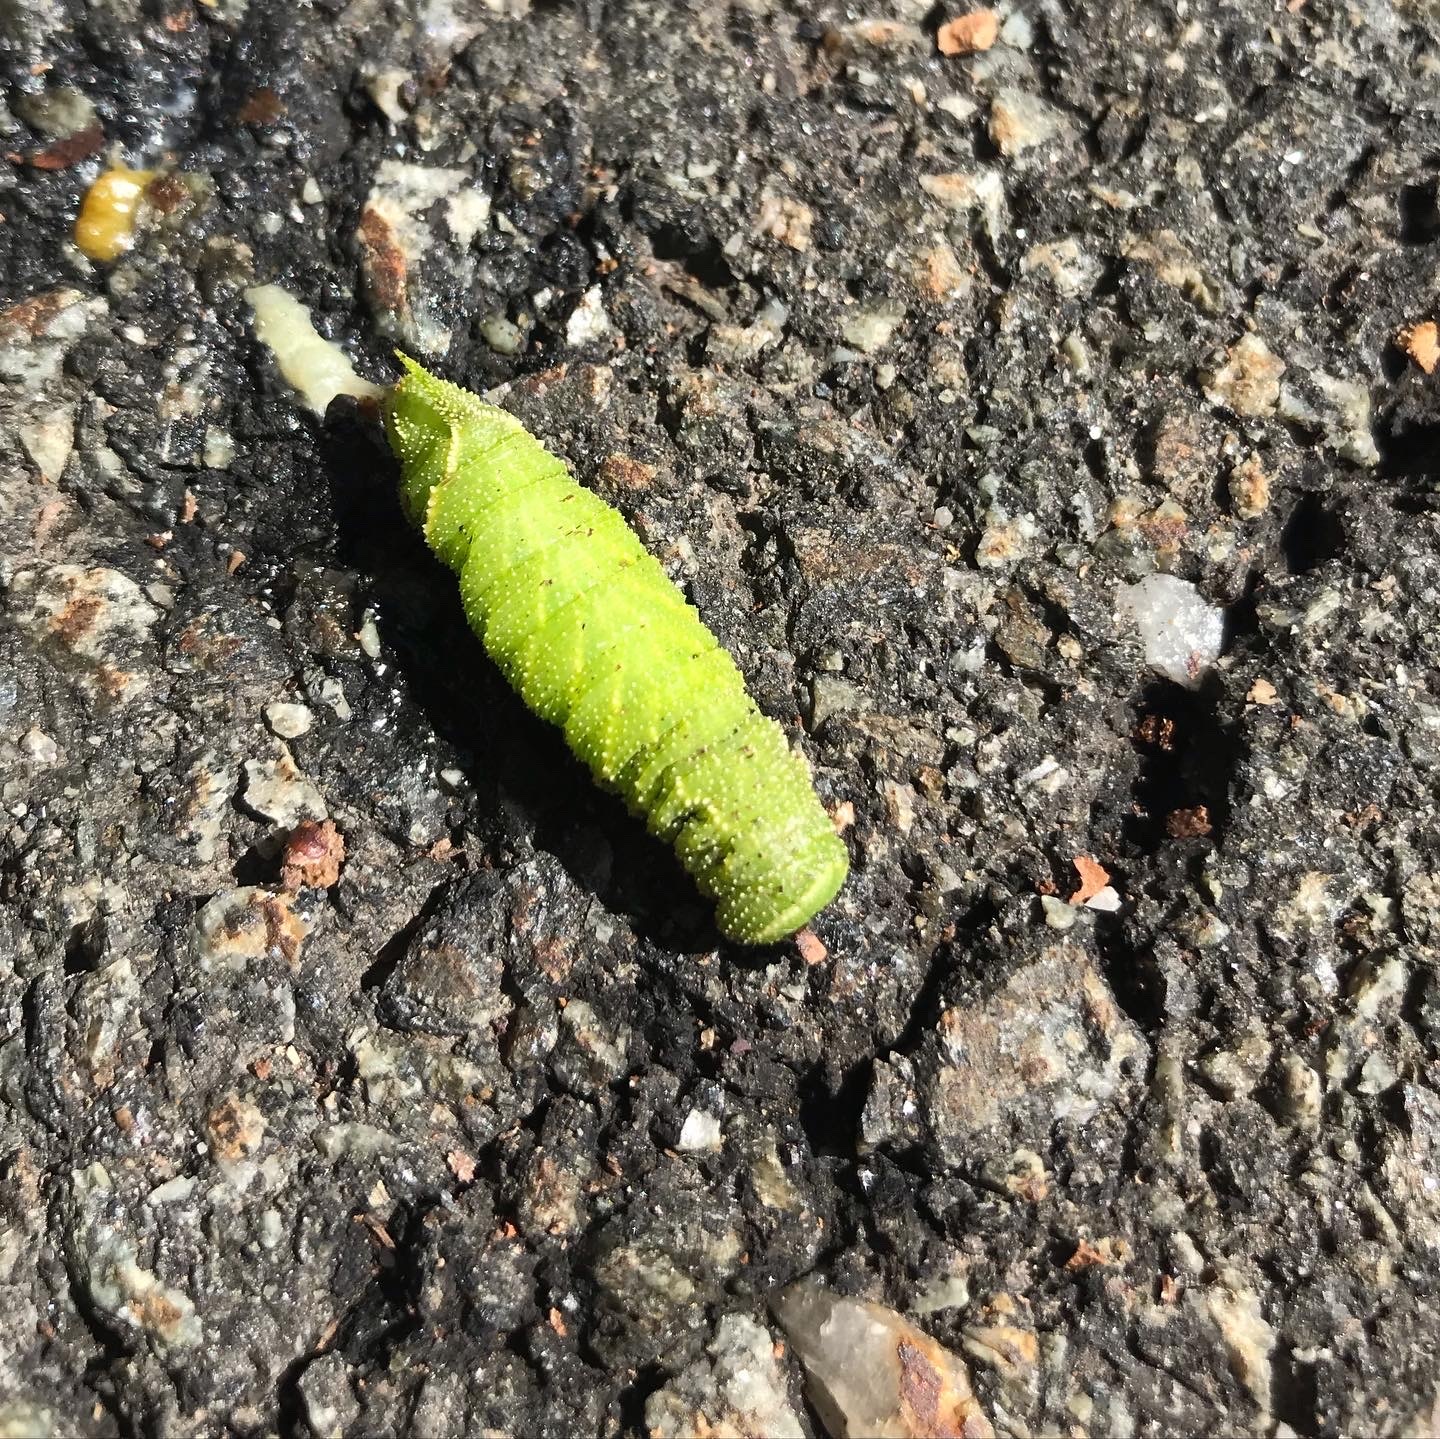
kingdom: Animalia
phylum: Arthropoda
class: Insecta
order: Lepidoptera
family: Sphingidae
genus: Paonias
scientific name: Paonias excaecata
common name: Blind-eyed sphinx
